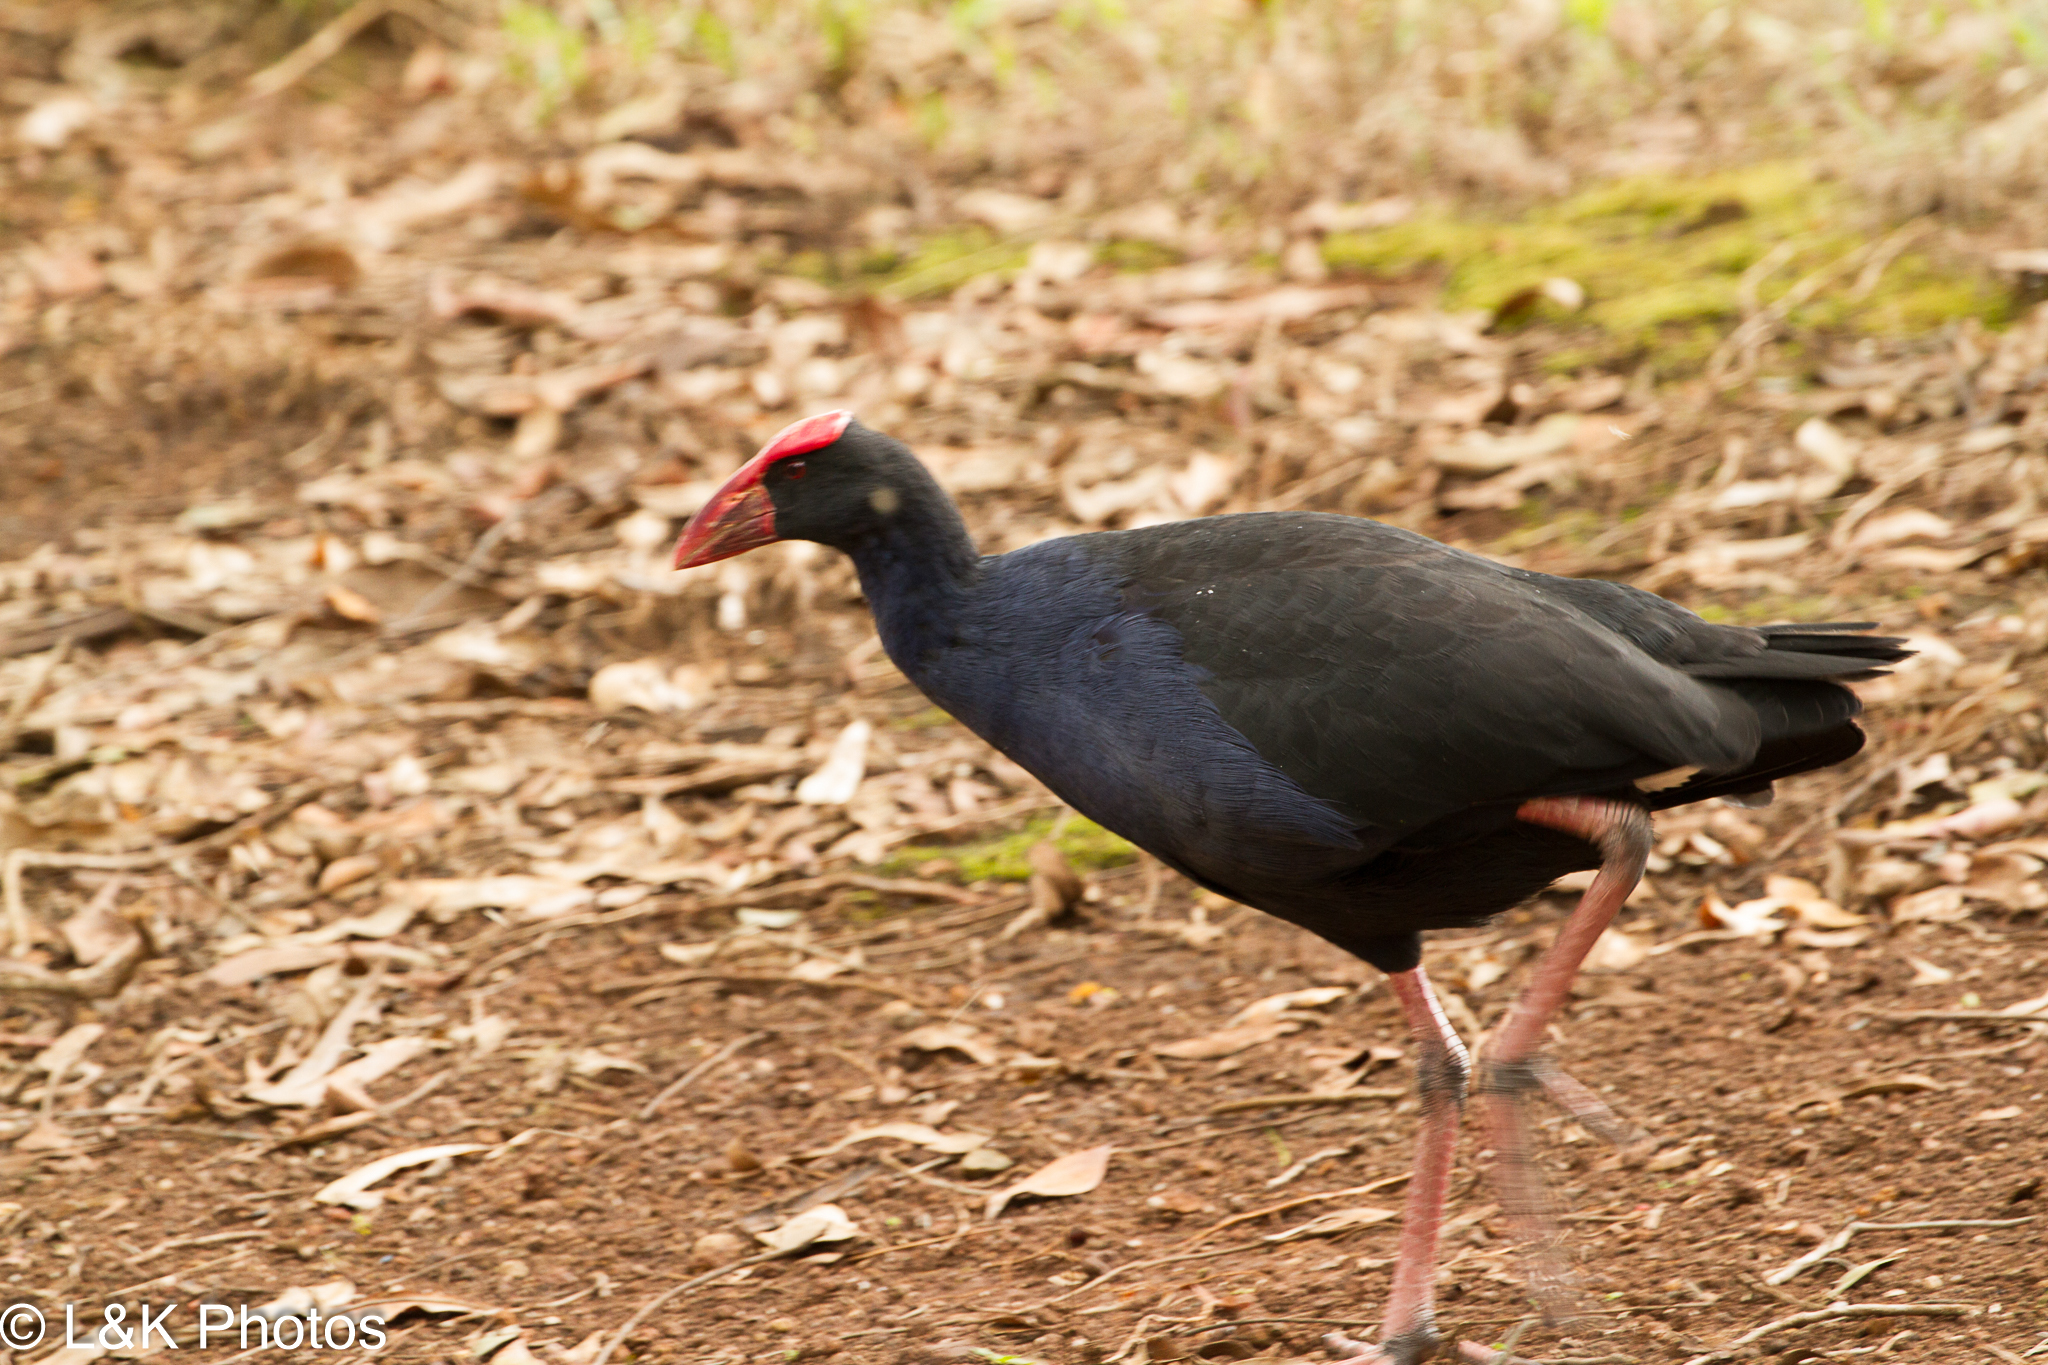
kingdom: Animalia
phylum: Chordata
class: Aves
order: Gruiformes
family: Rallidae
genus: Porphyrio
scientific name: Porphyrio melanotus
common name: Australasian swamphen
